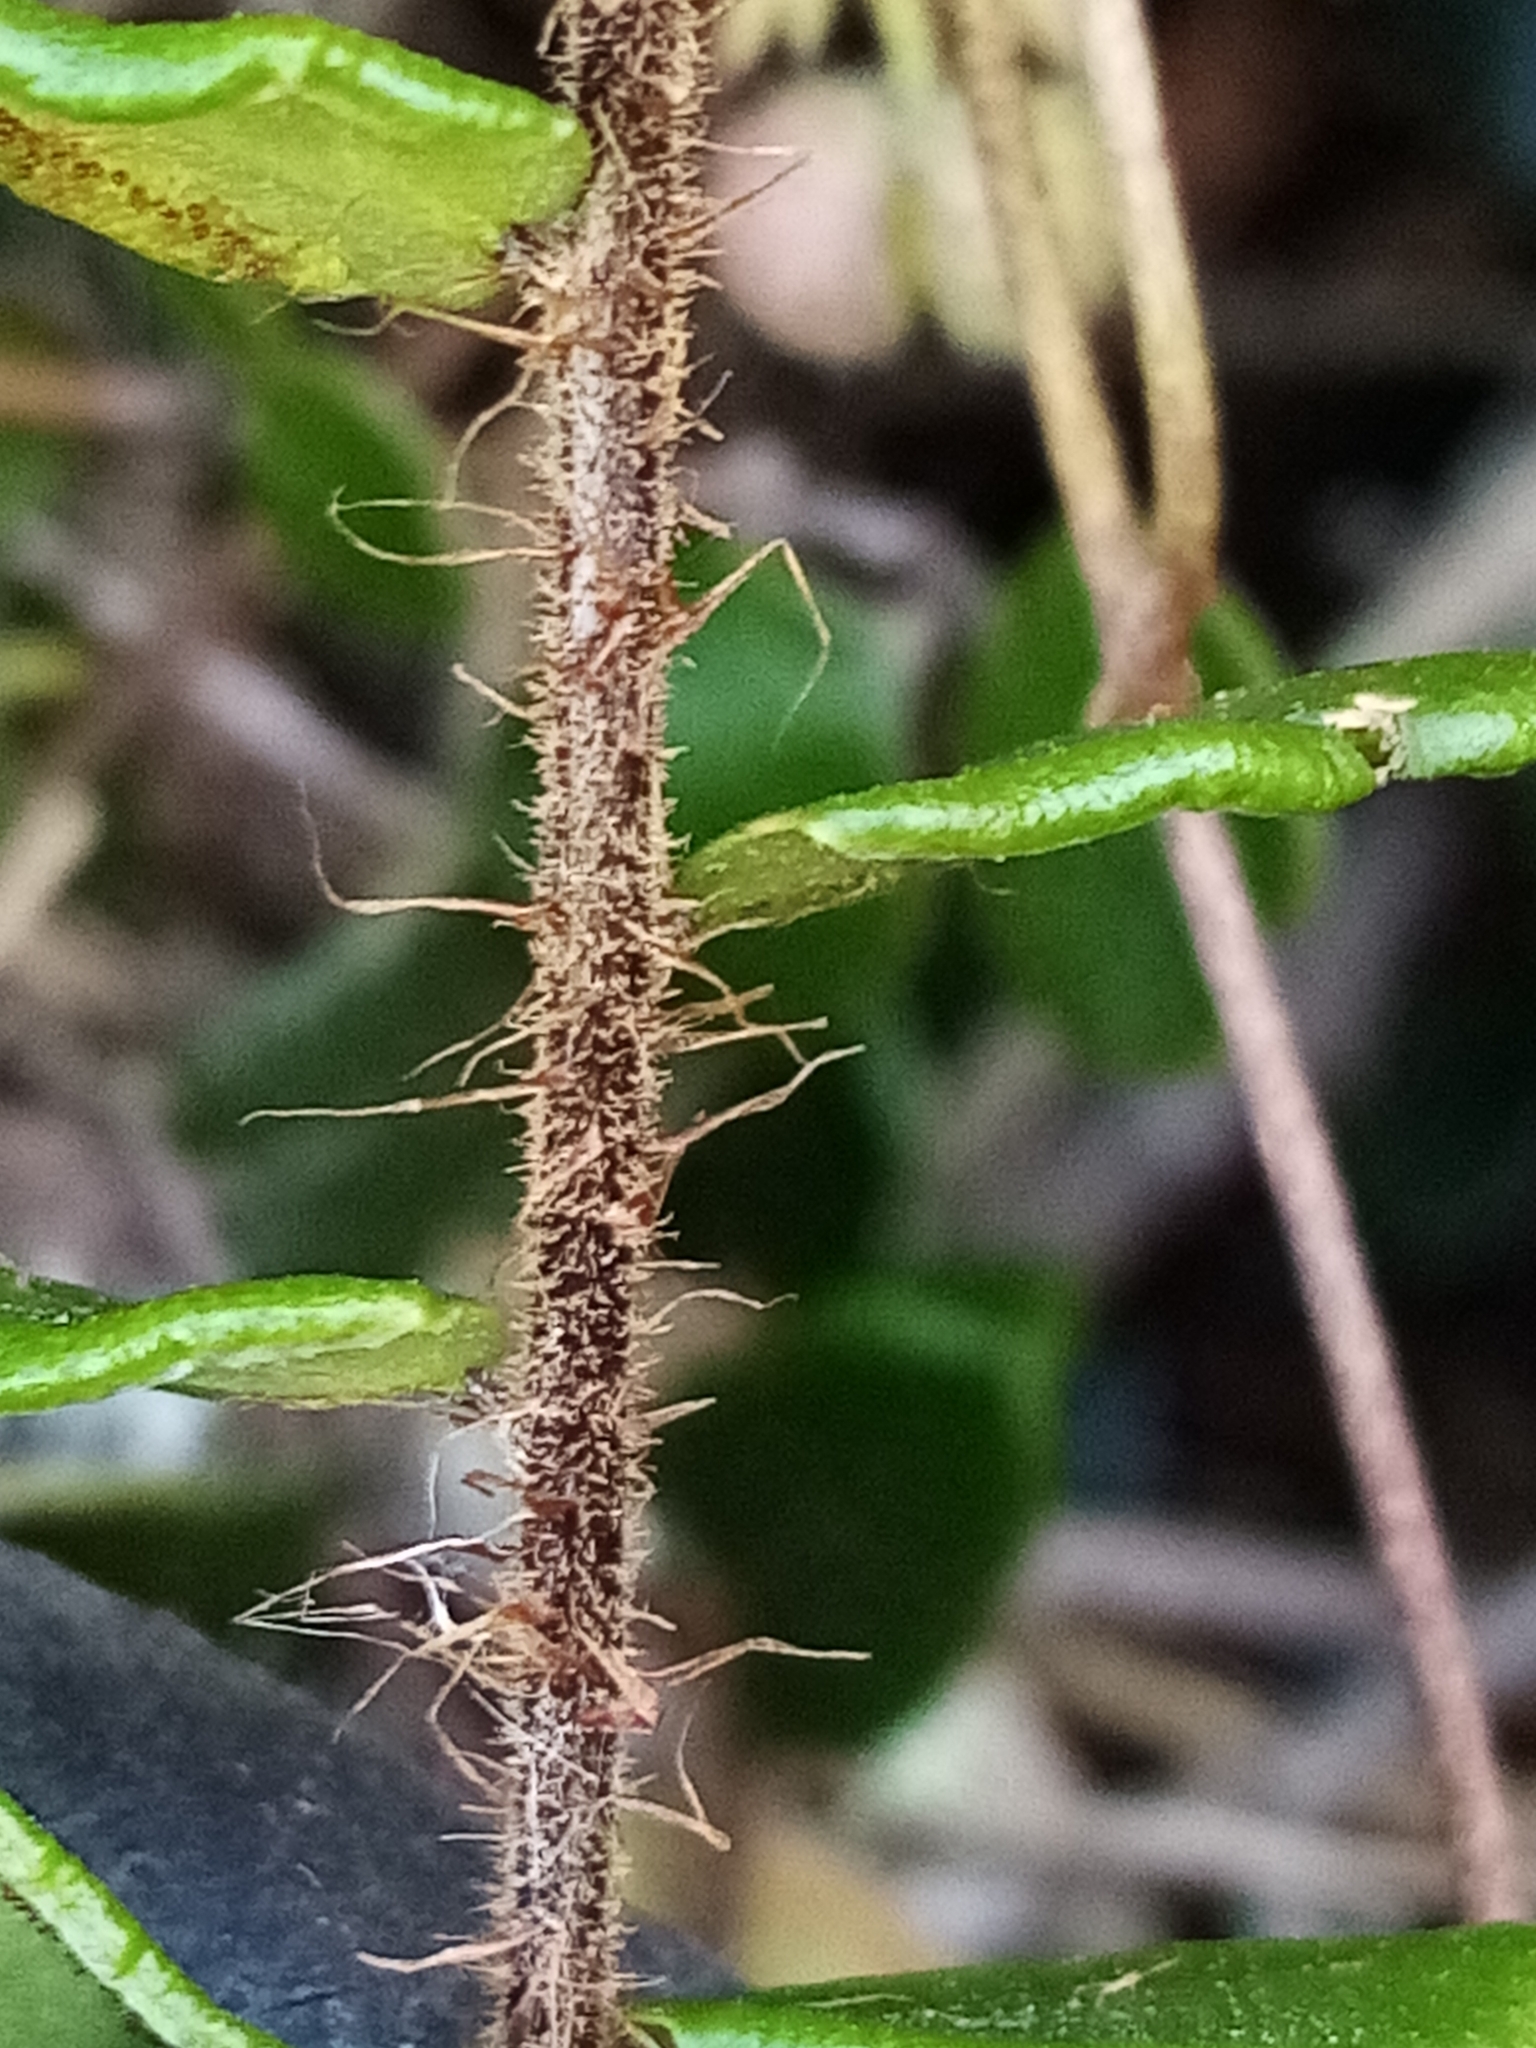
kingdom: Plantae
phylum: Tracheophyta
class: Polypodiopsida
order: Polypodiales
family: Pteridaceae
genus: Pellaea
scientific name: Pellaea rotundifolia
